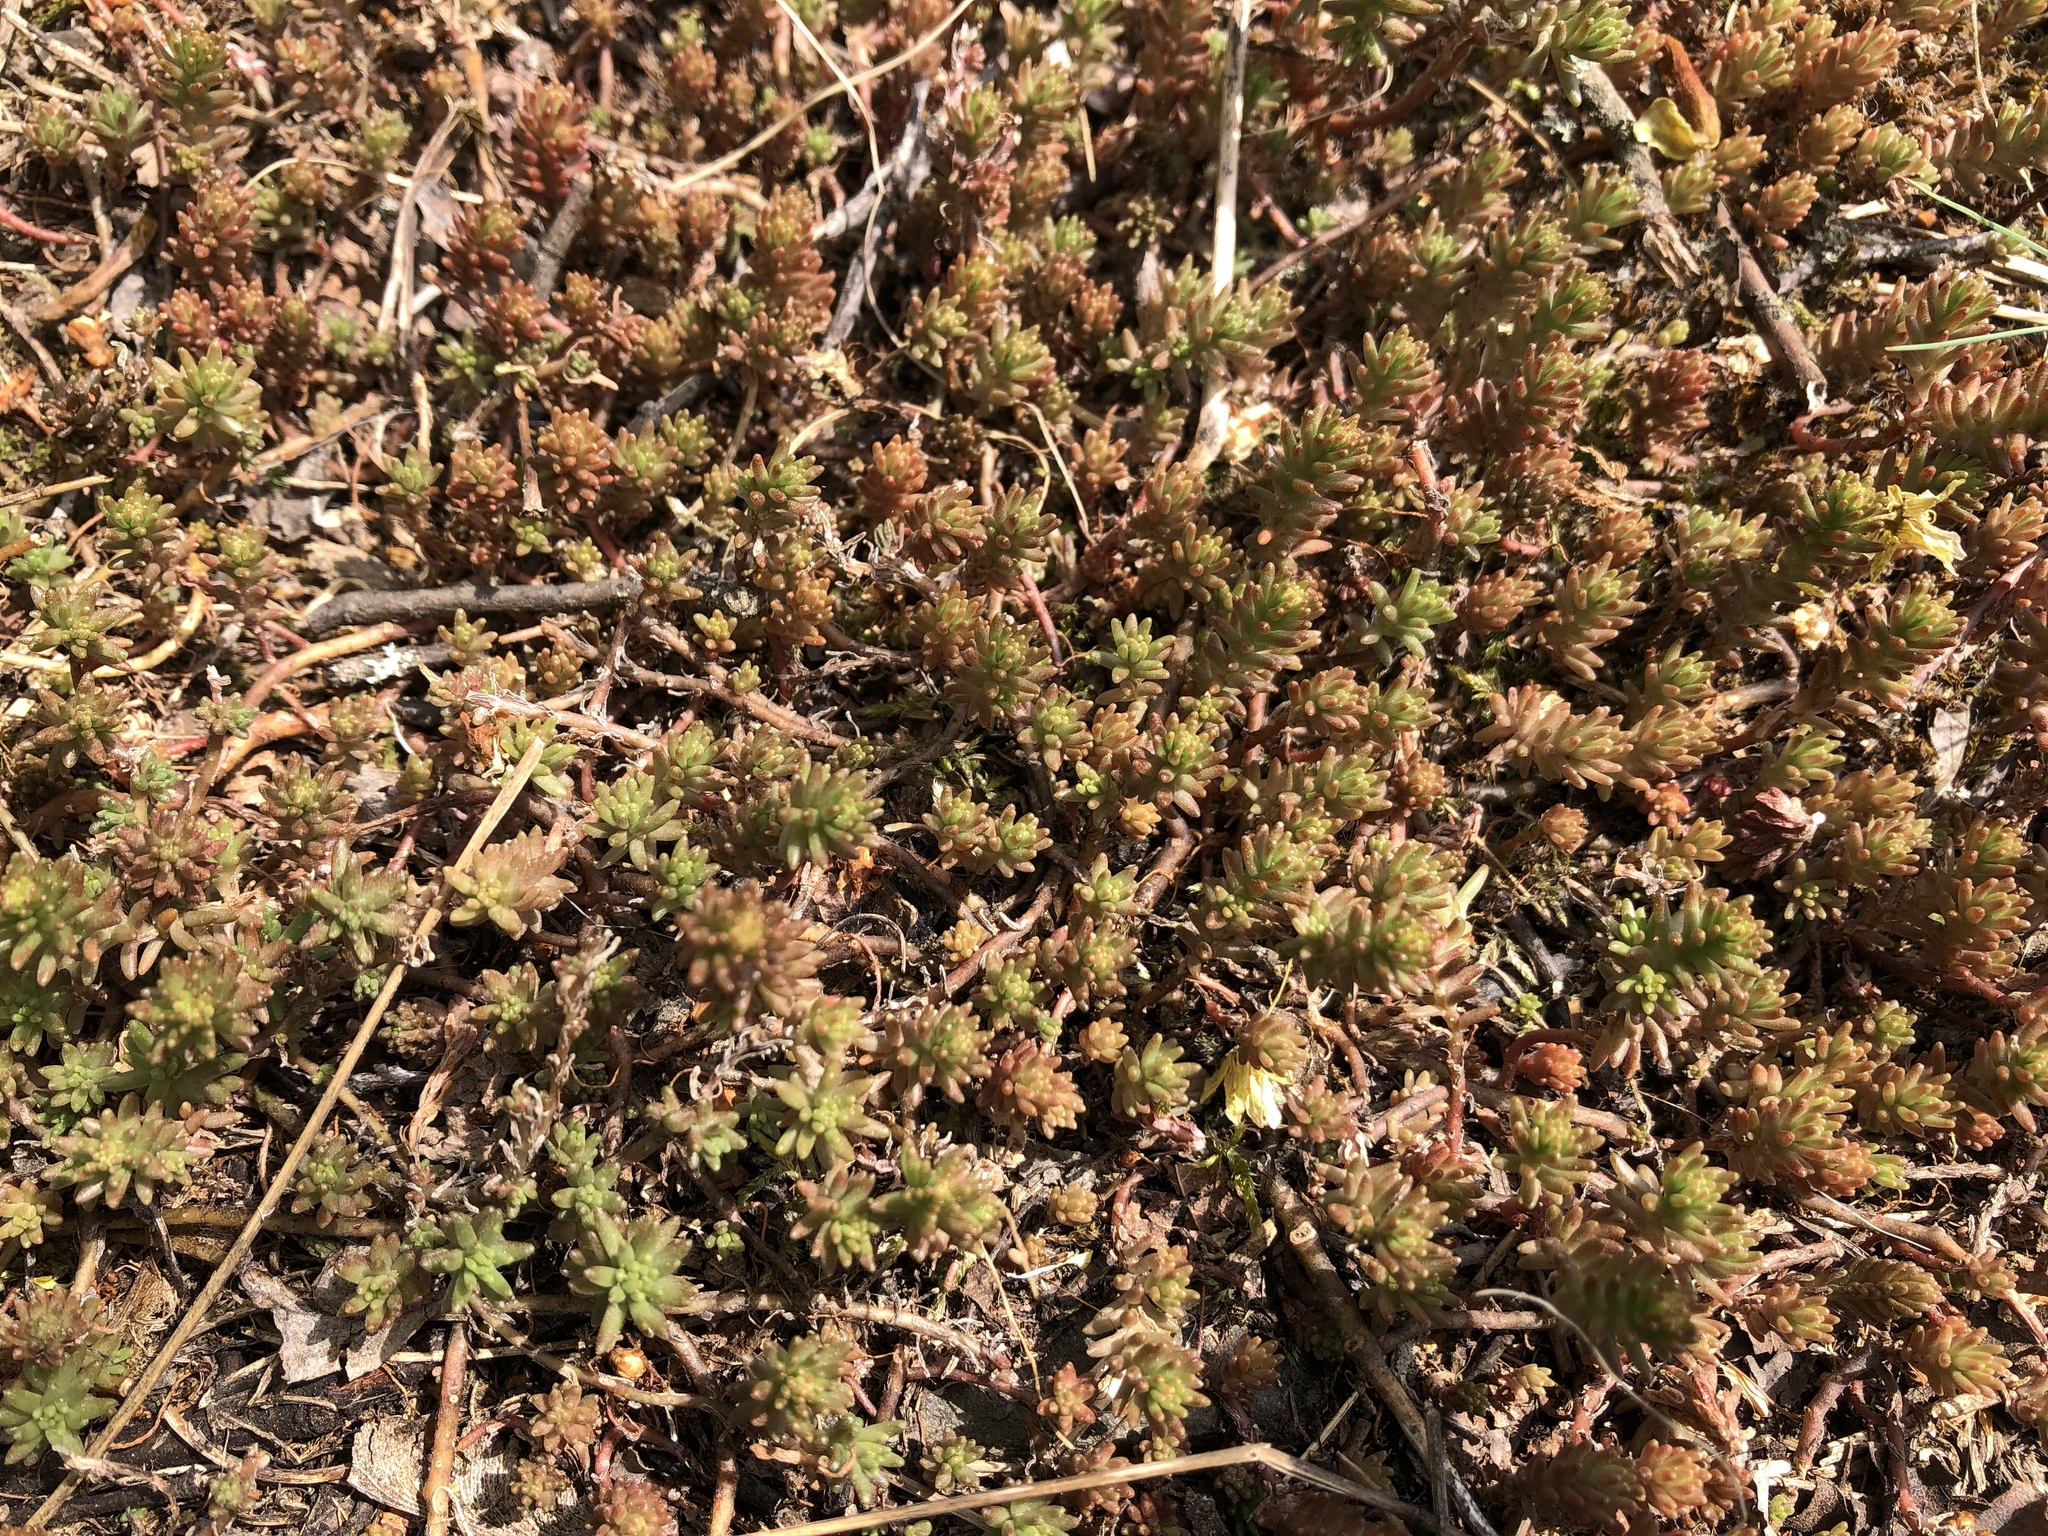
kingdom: Plantae
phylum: Tracheophyta
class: Magnoliopsida
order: Saxifragales
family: Crassulaceae
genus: Sedum
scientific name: Sedum sexangulare
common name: Tasteless stonecrop
